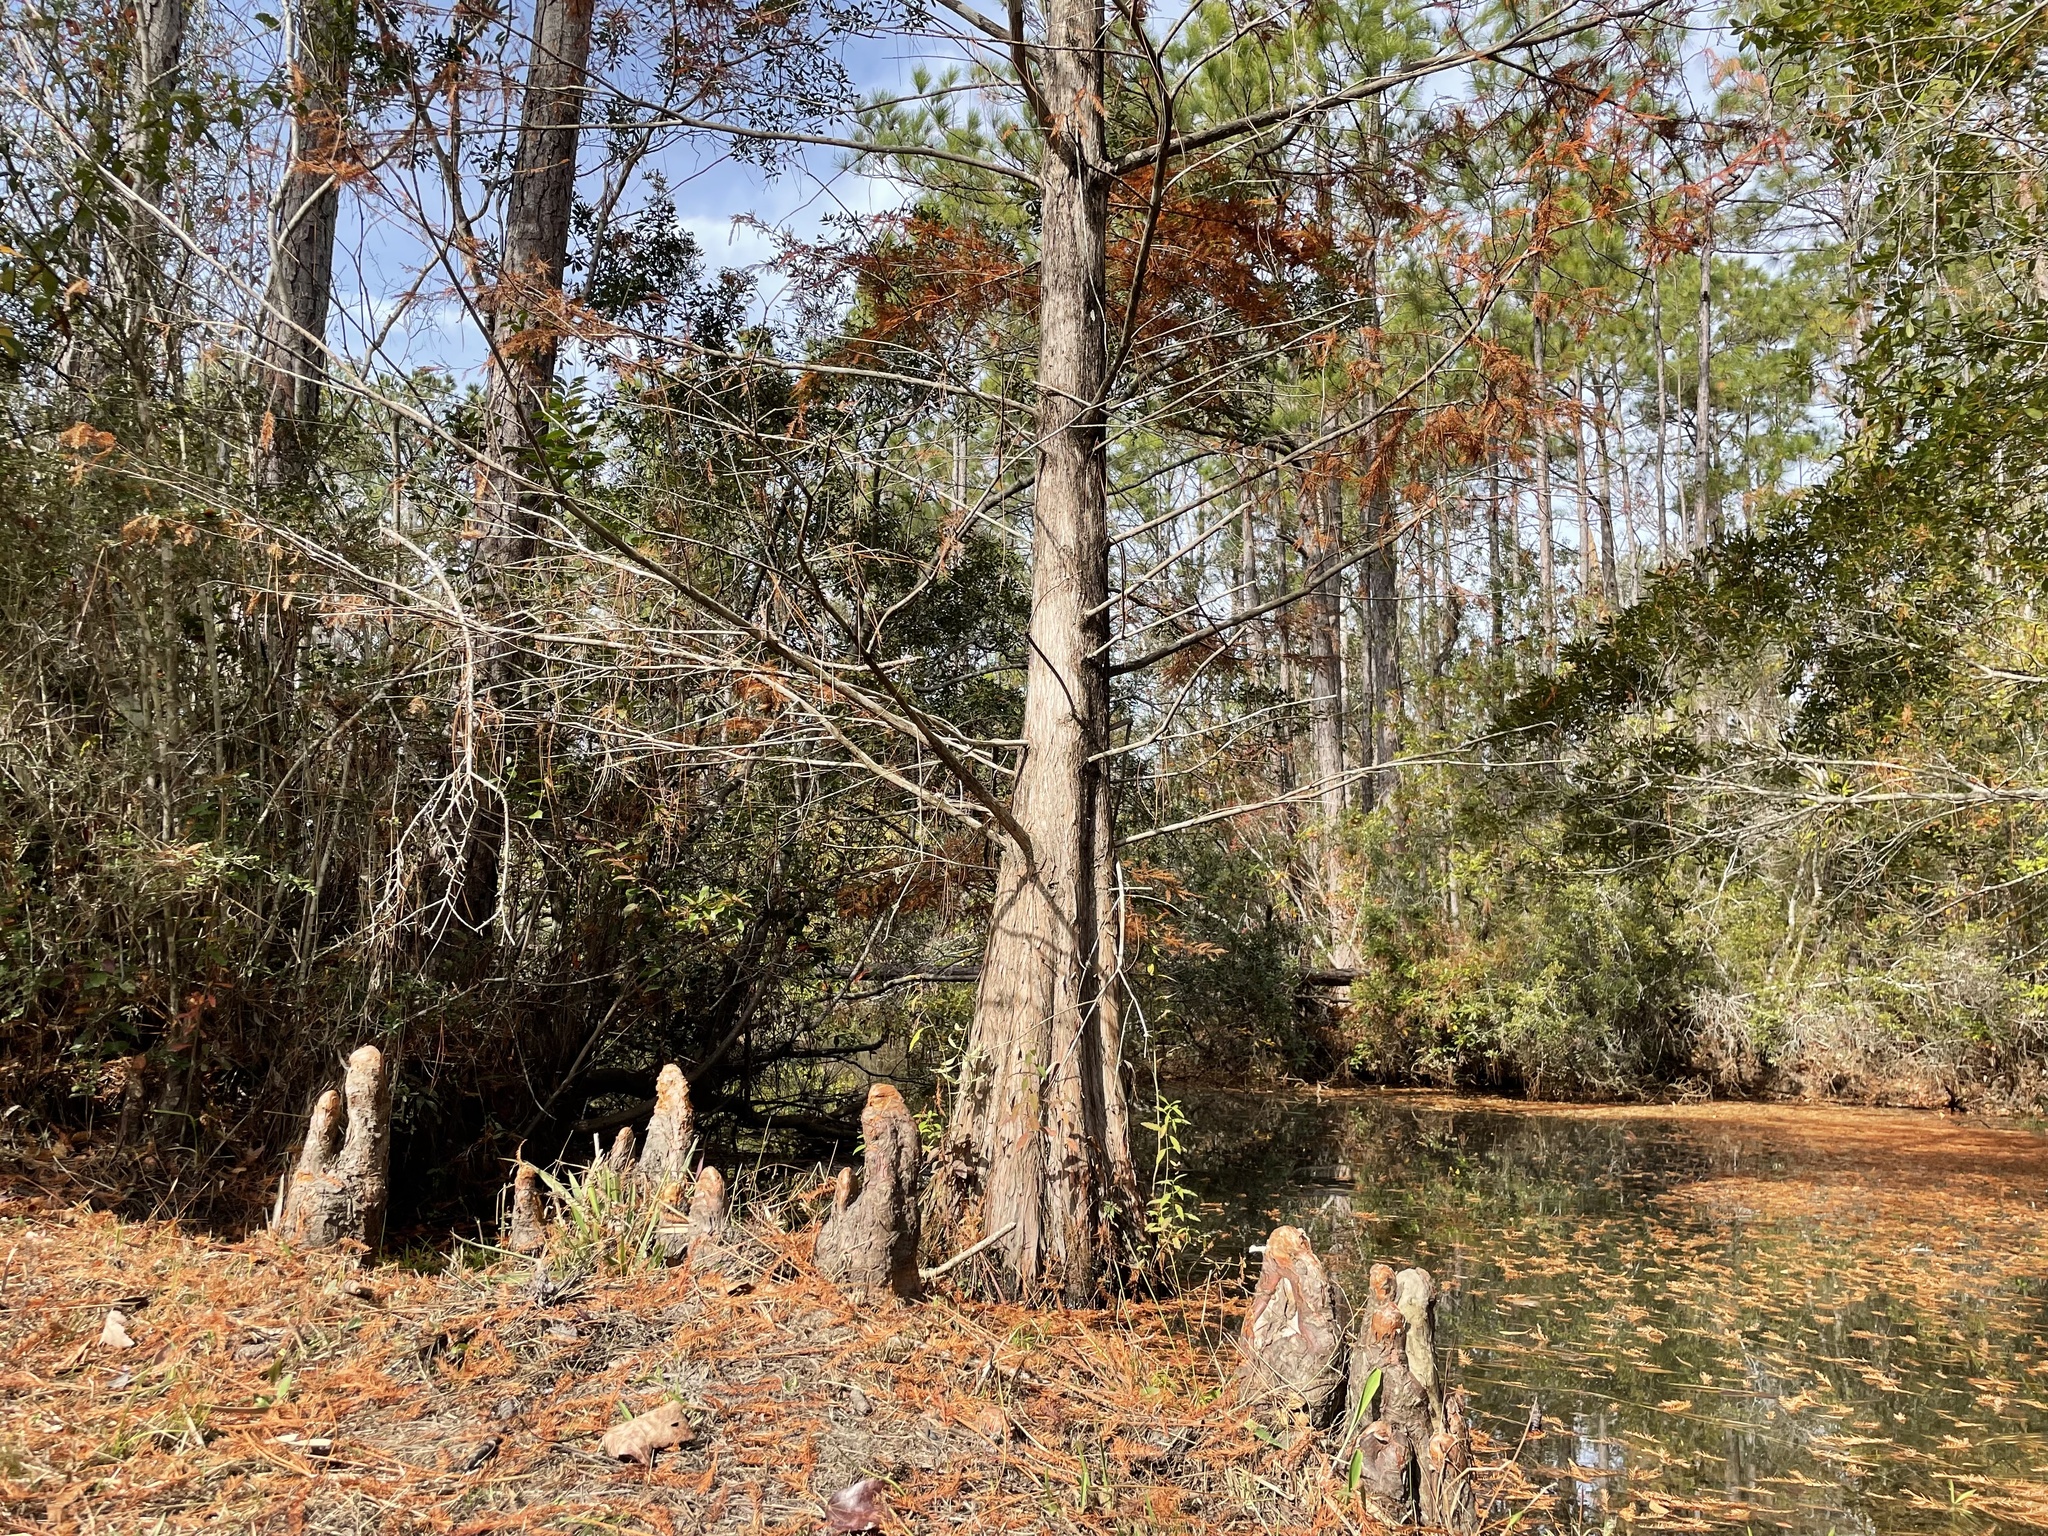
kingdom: Plantae
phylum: Tracheophyta
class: Pinopsida
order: Pinales
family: Cupressaceae
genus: Taxodium
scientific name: Taxodium distichum
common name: Bald cypress
